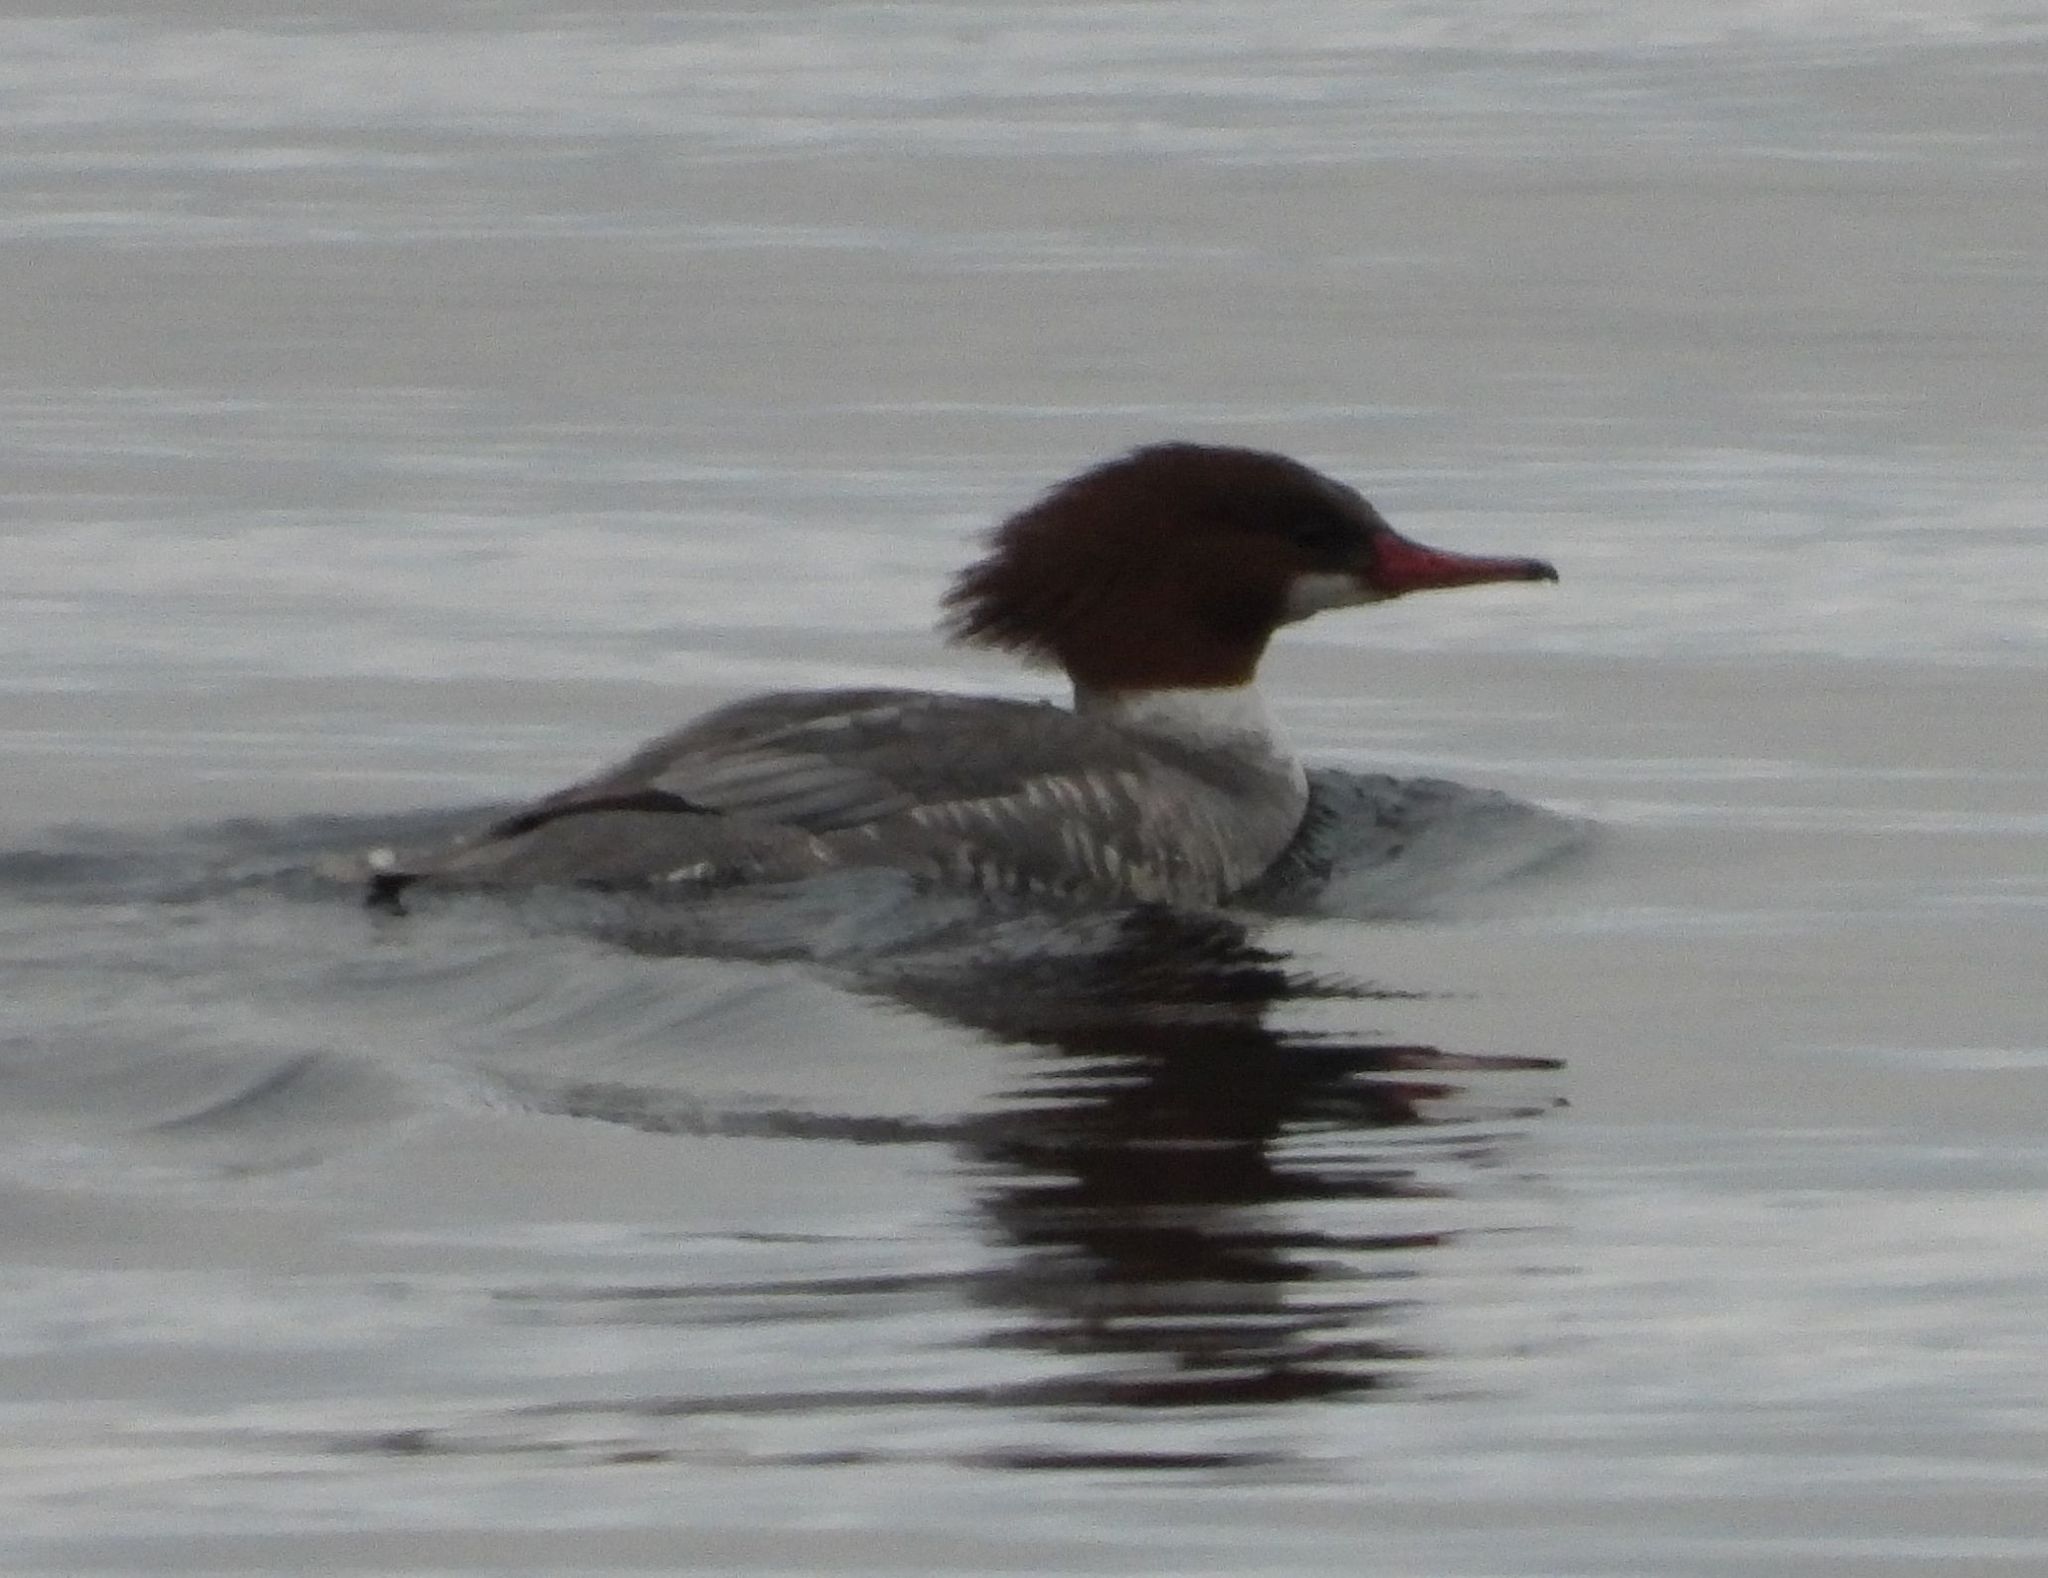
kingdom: Animalia
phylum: Chordata
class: Aves
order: Anseriformes
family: Anatidae
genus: Mergus
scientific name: Mergus merganser
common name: Common merganser
